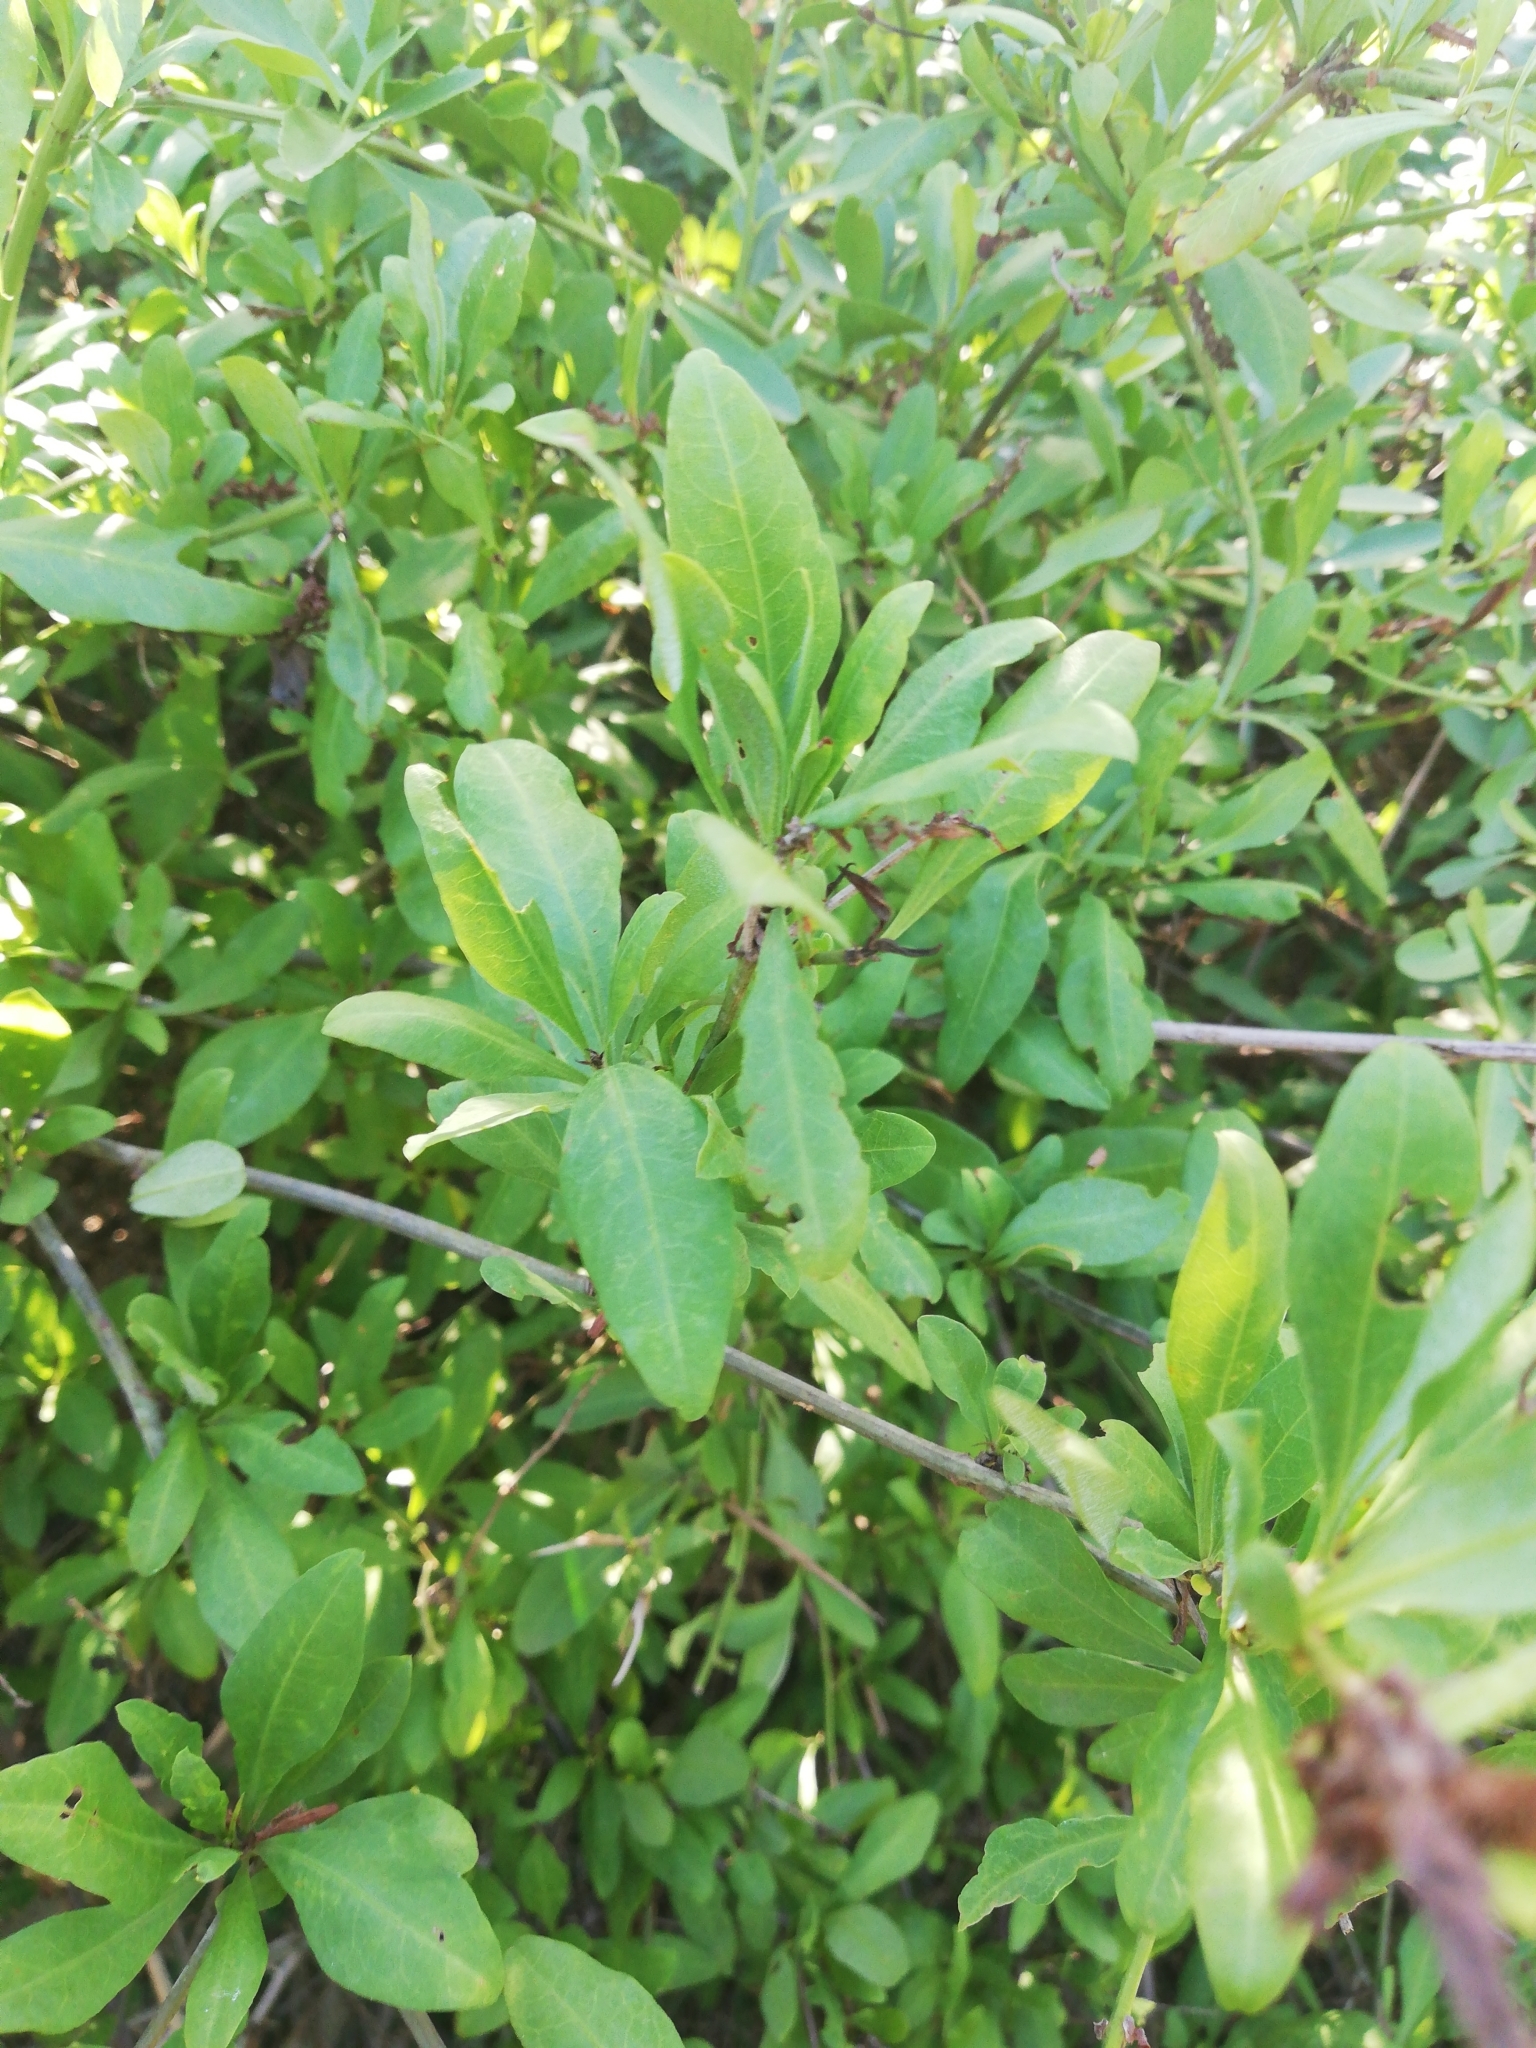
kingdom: Plantae
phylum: Tracheophyta
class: Magnoliopsida
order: Caryophyllales
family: Plumbaginaceae
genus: Plumbago
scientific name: Plumbago auriculata
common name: Cape leadwort
